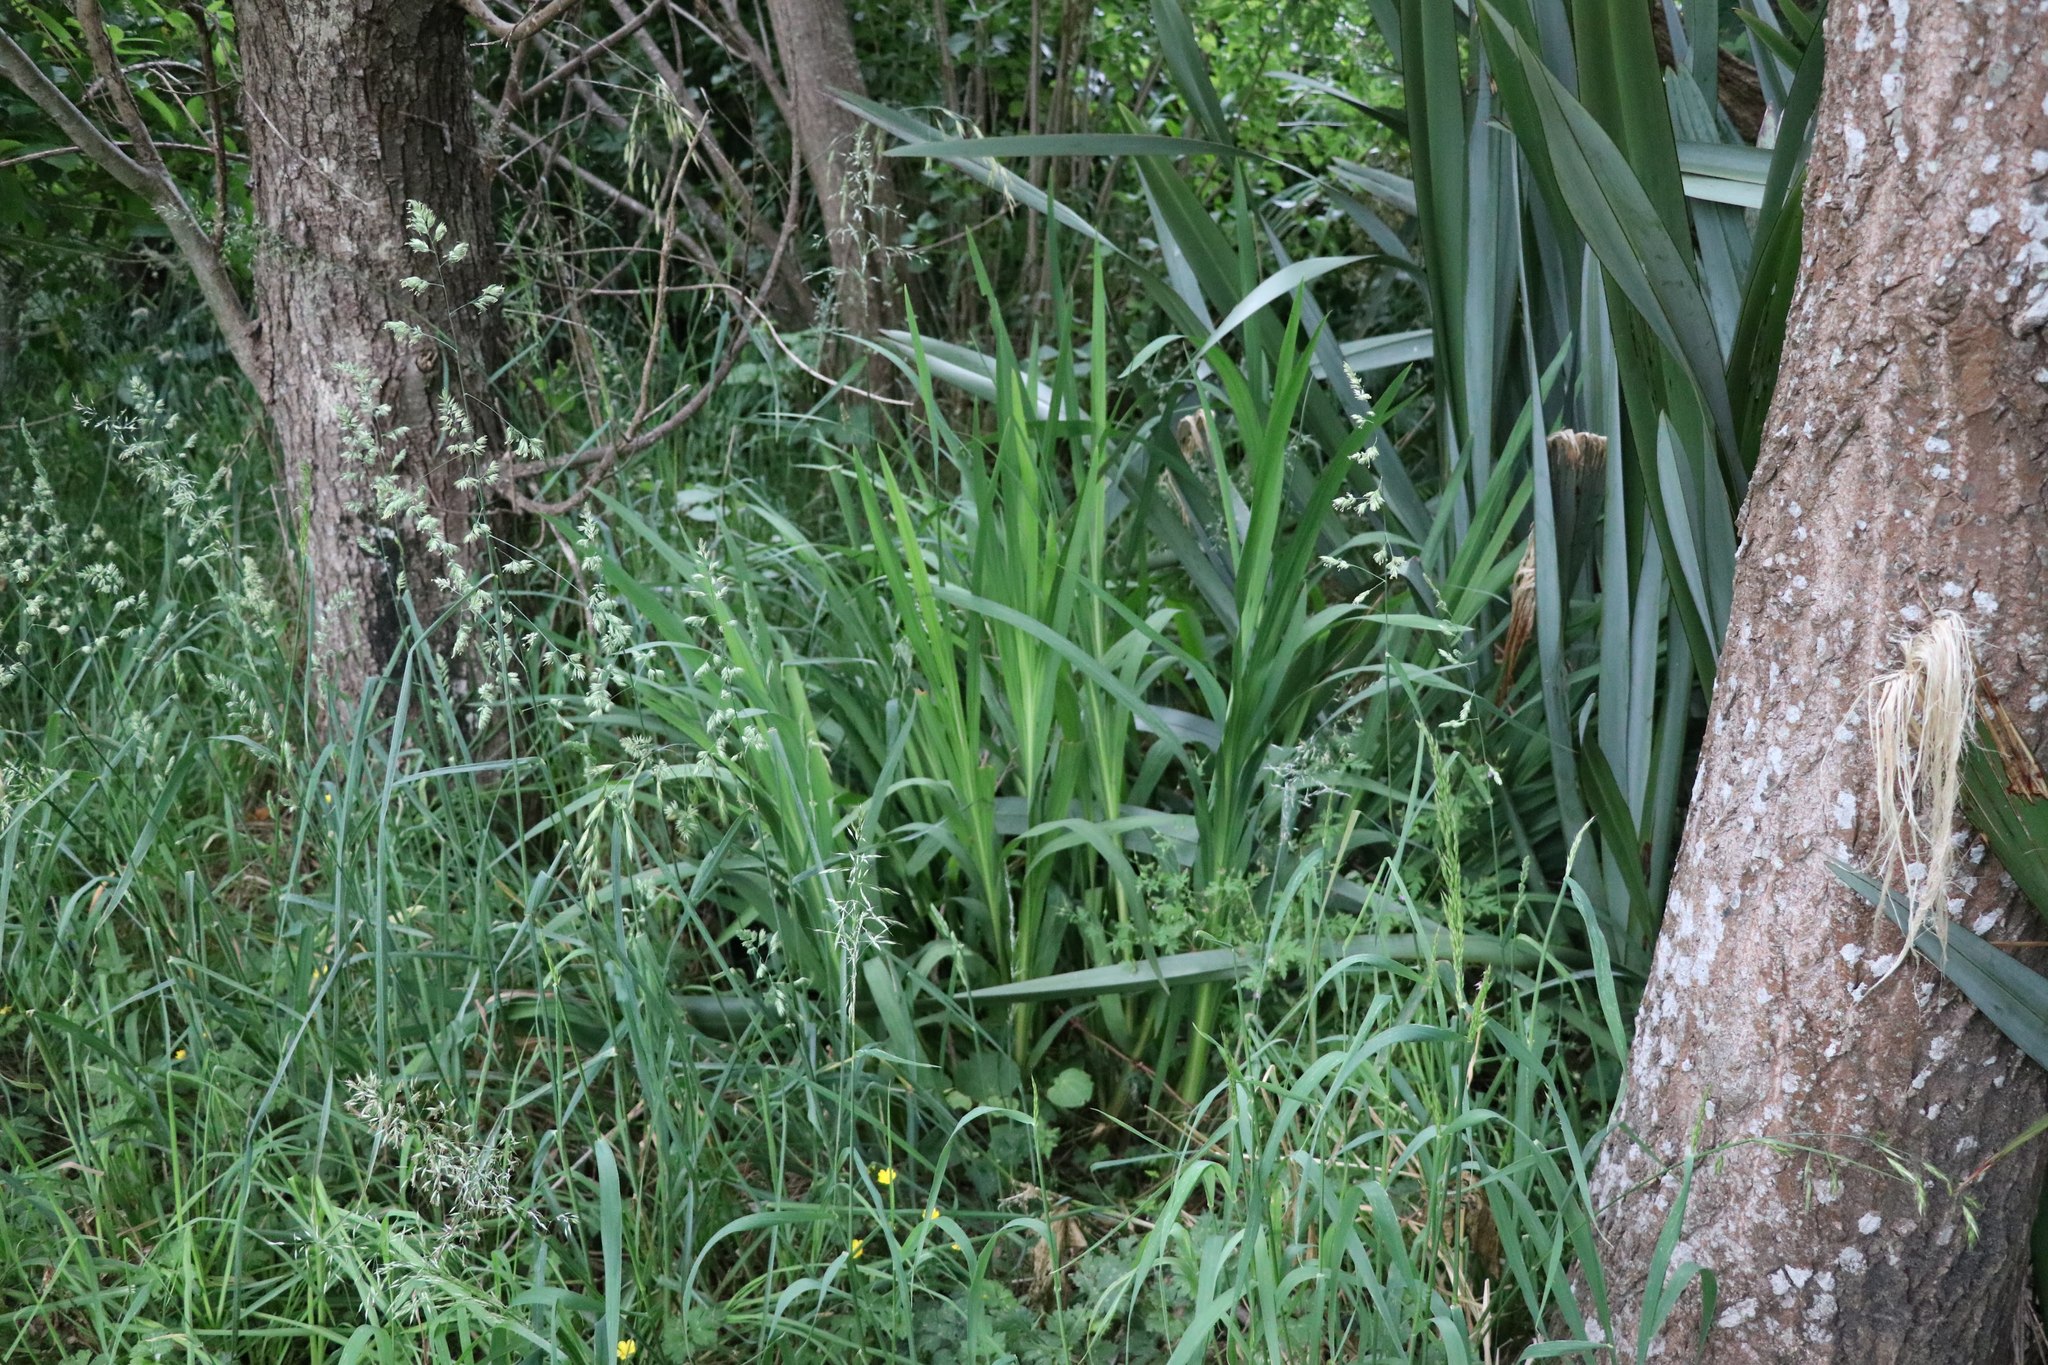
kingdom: Plantae
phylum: Tracheophyta
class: Liliopsida
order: Asparagales
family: Iridaceae
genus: Crocosmia
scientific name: Crocosmia crocosmiiflora
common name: Montbretia
